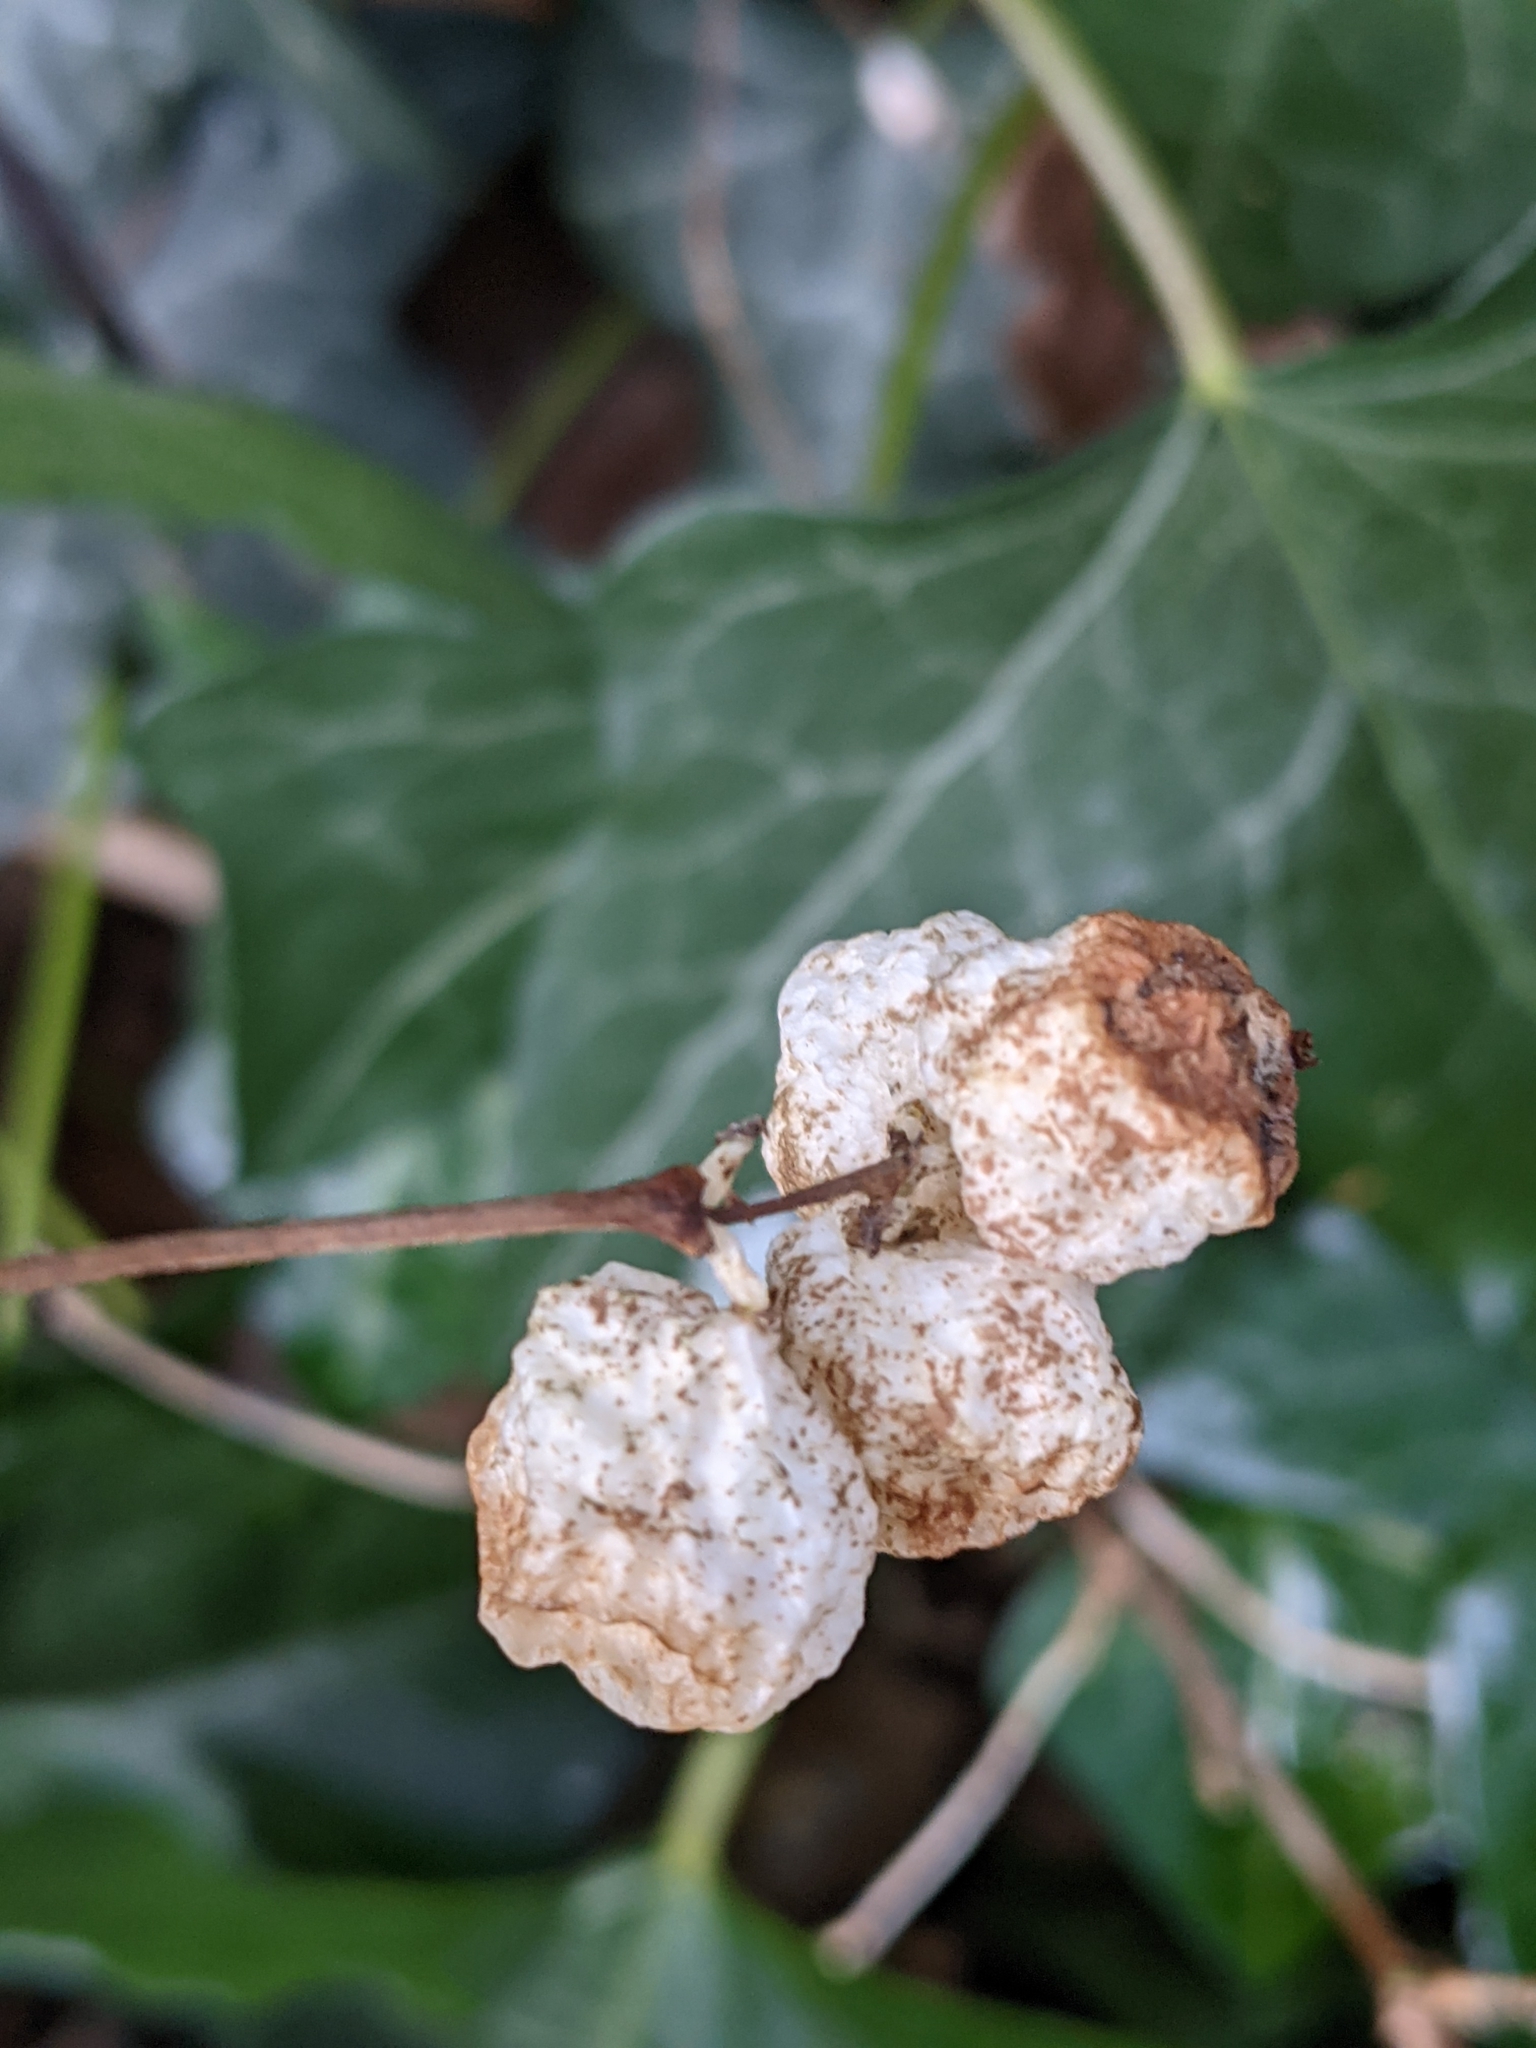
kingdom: Plantae
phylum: Tracheophyta
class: Magnoliopsida
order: Dipsacales
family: Caprifoliaceae
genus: Symphoricarpos
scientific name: Symphoricarpos albus
